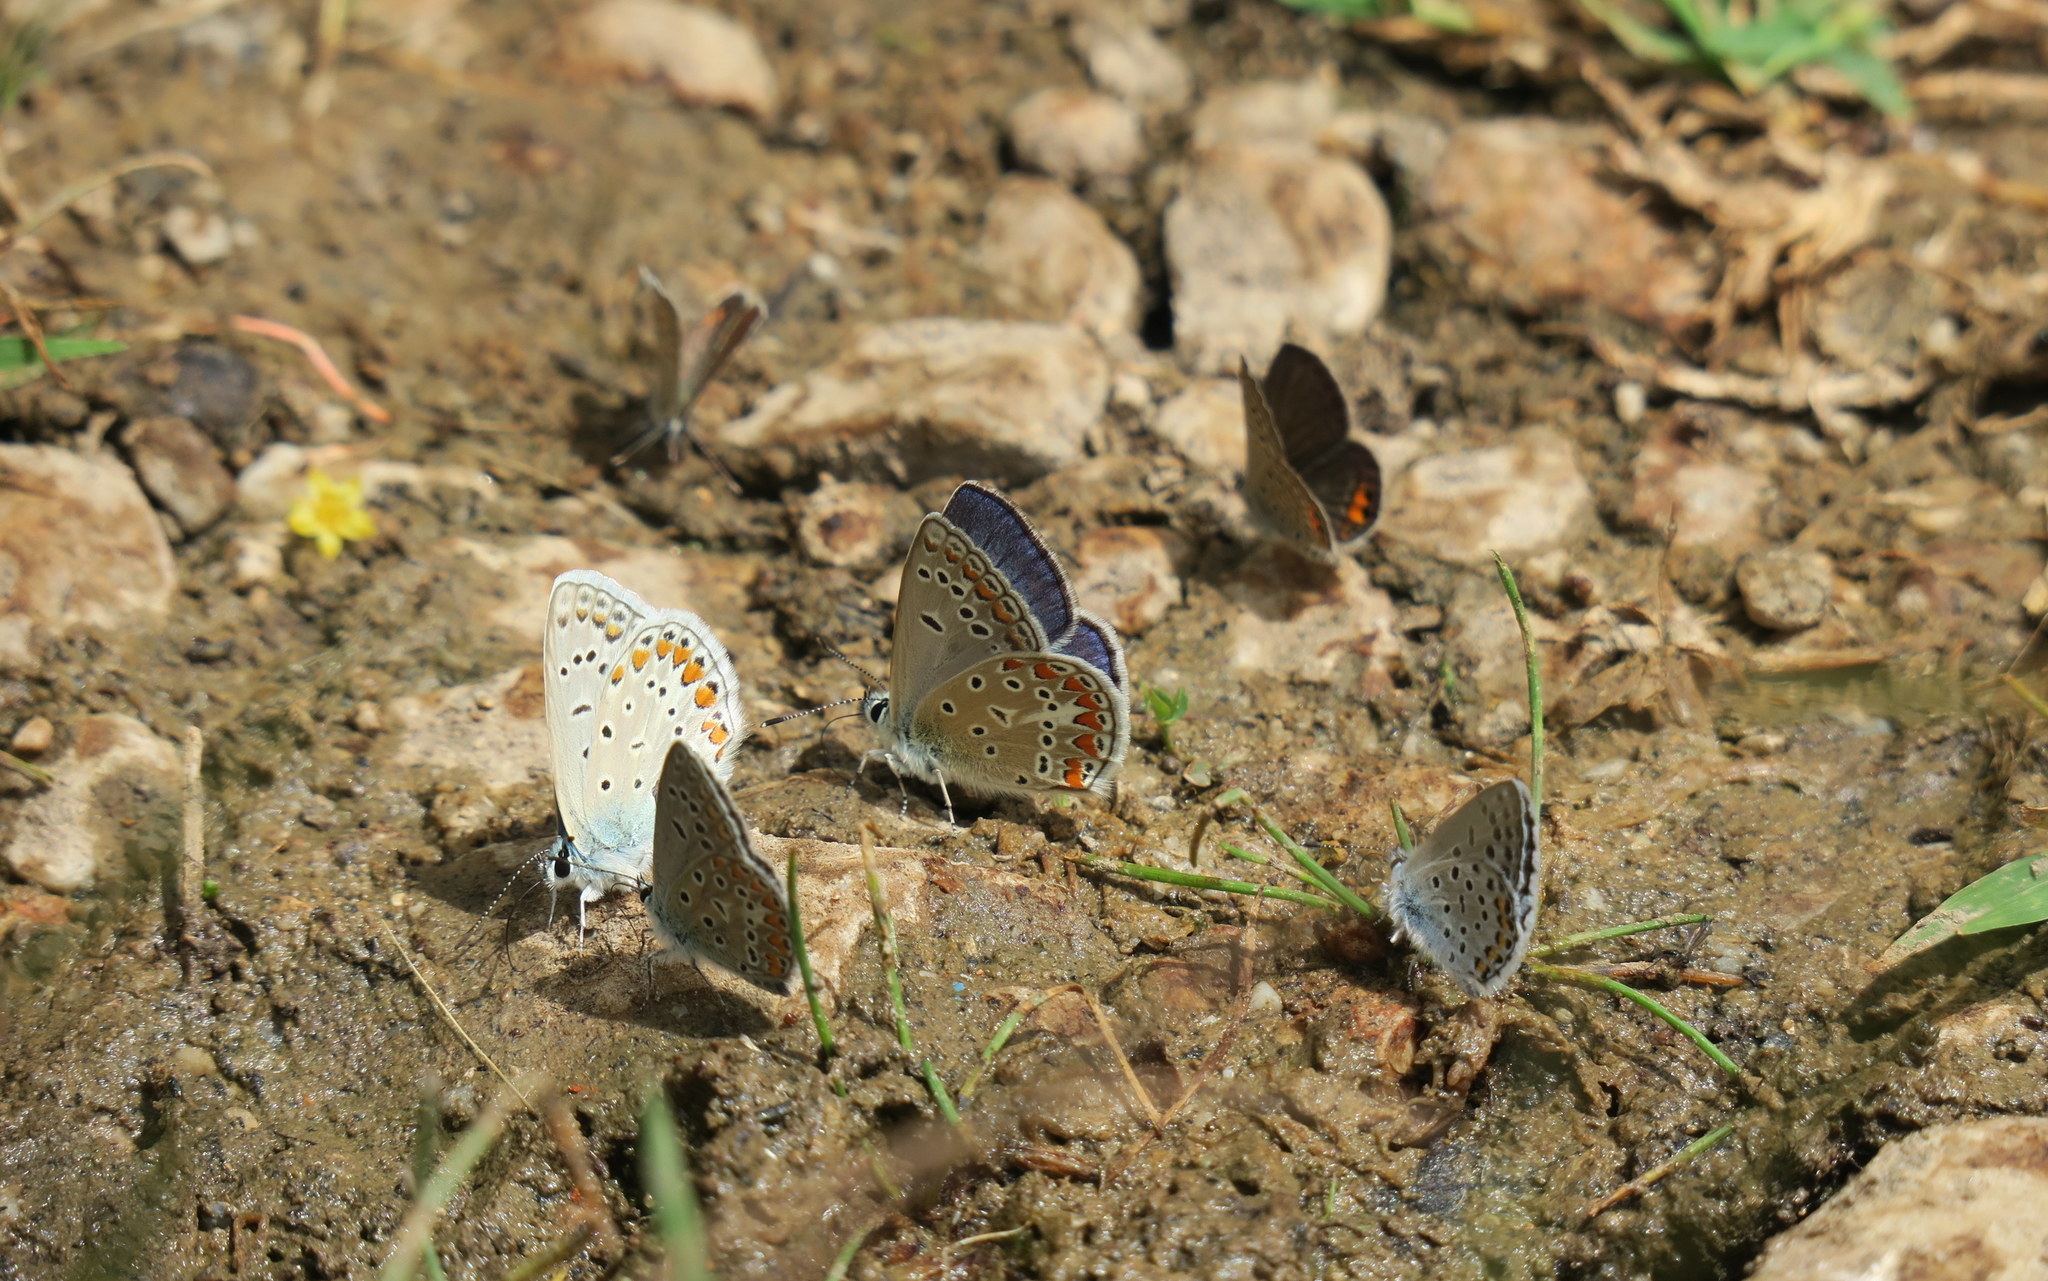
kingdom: Animalia
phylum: Arthropoda
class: Insecta
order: Lepidoptera
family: Lycaenidae
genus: Polyommatus
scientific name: Polyommatus thersites
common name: Chapman's blue
